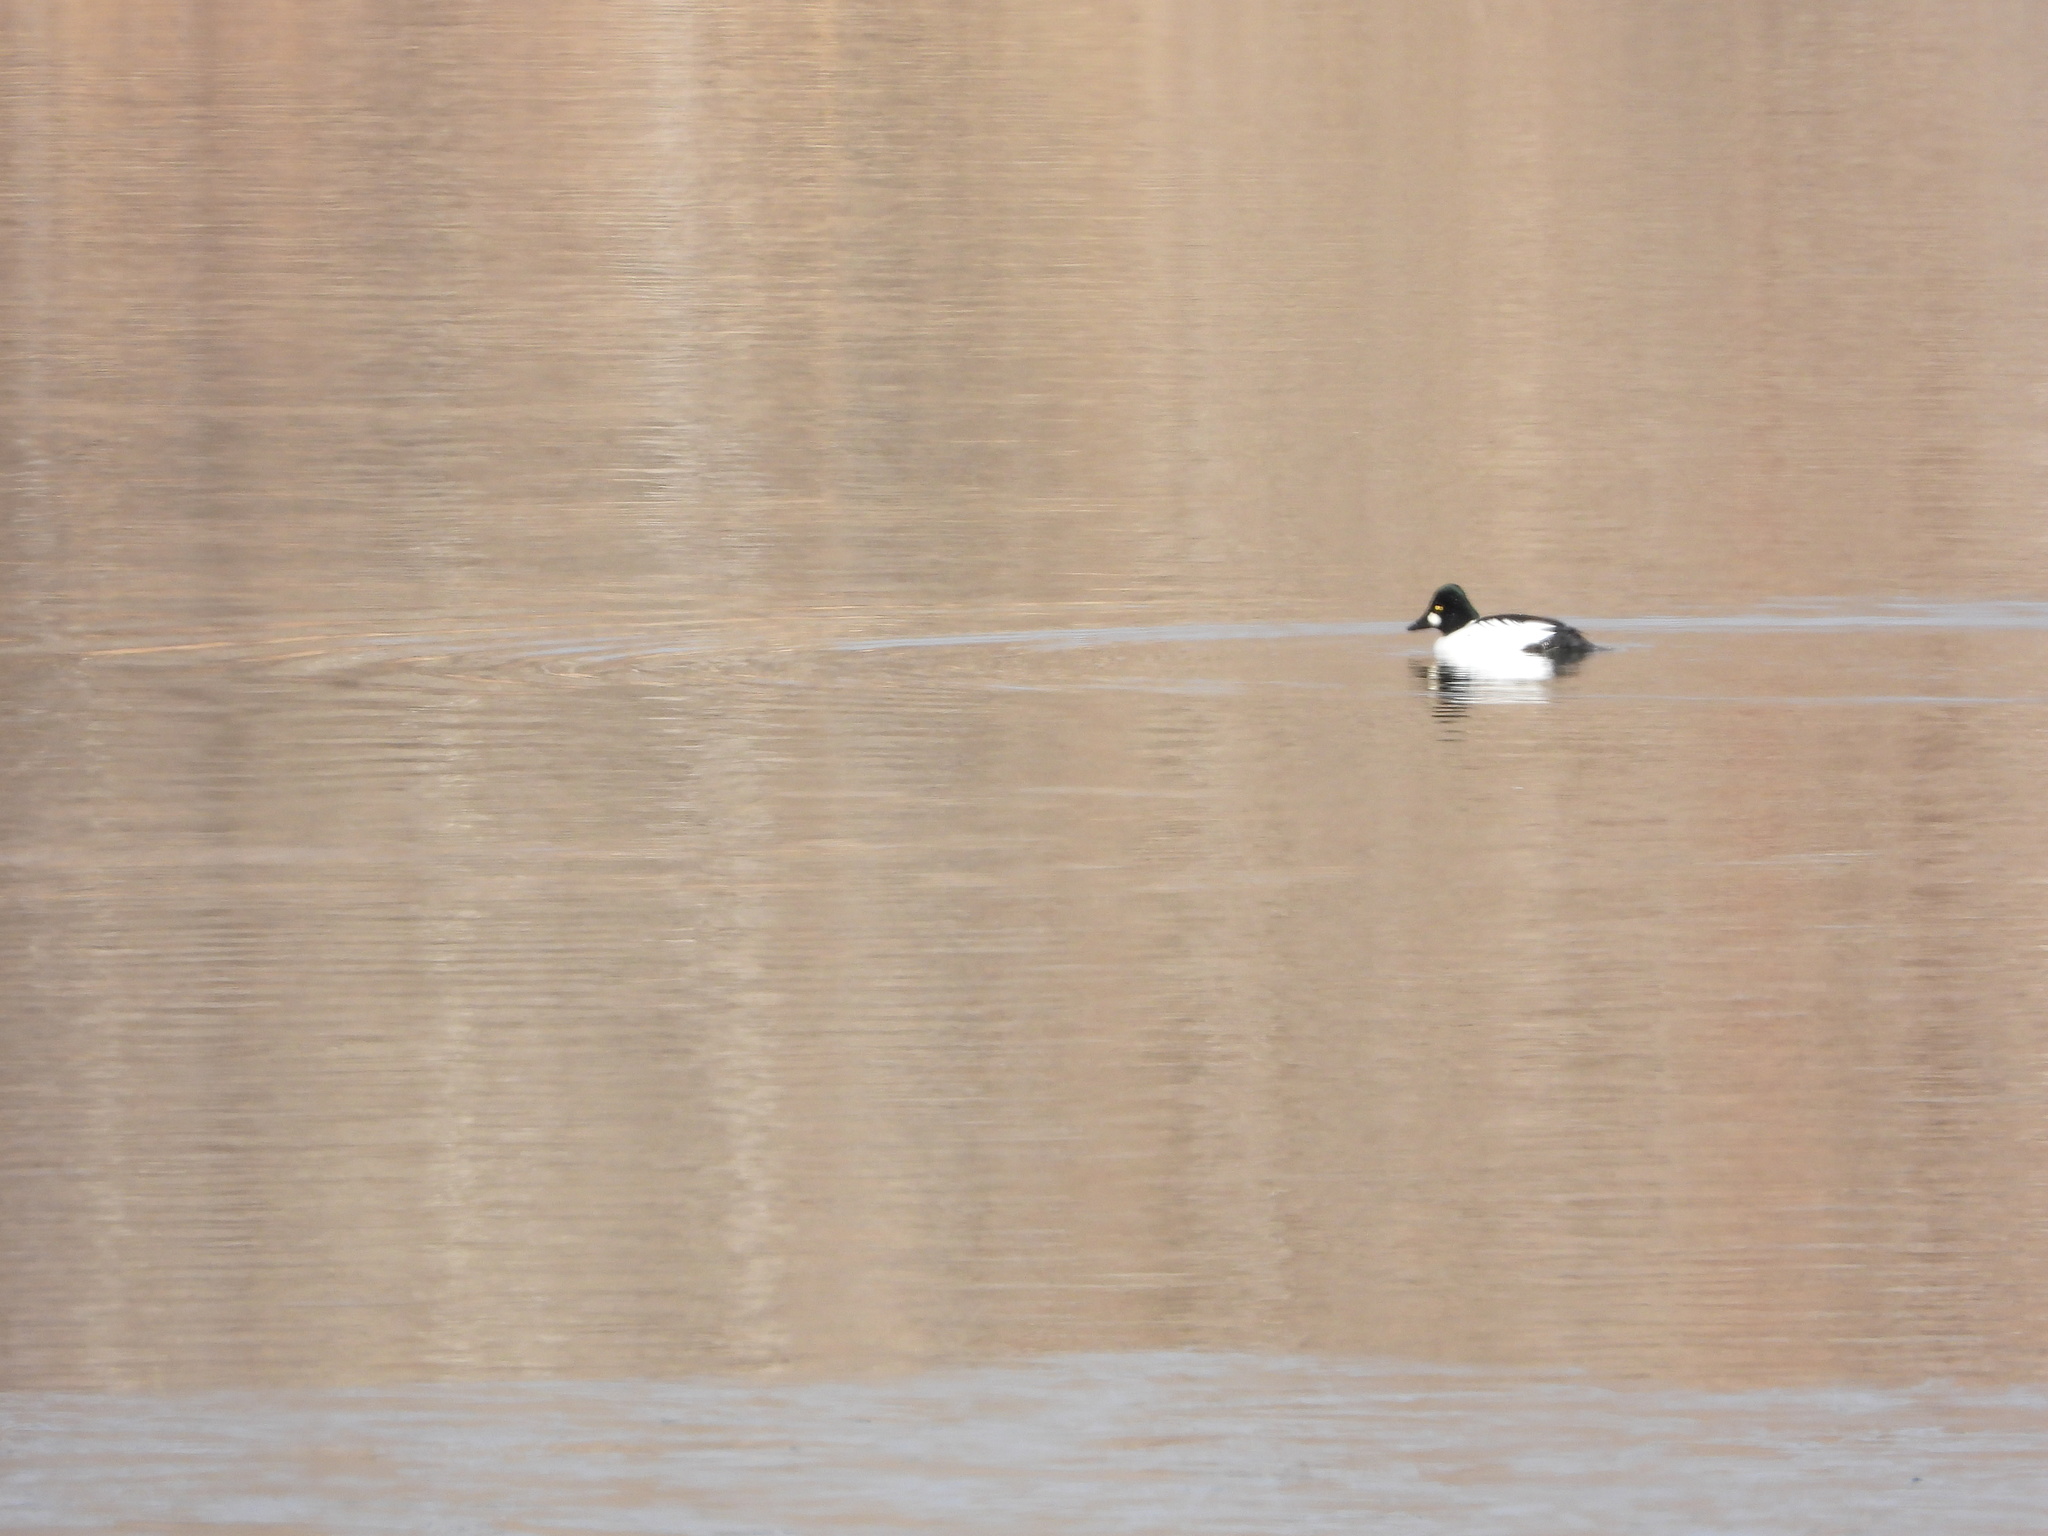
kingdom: Animalia
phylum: Chordata
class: Aves
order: Anseriformes
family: Anatidae
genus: Bucephala
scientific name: Bucephala clangula
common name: Common goldeneye
